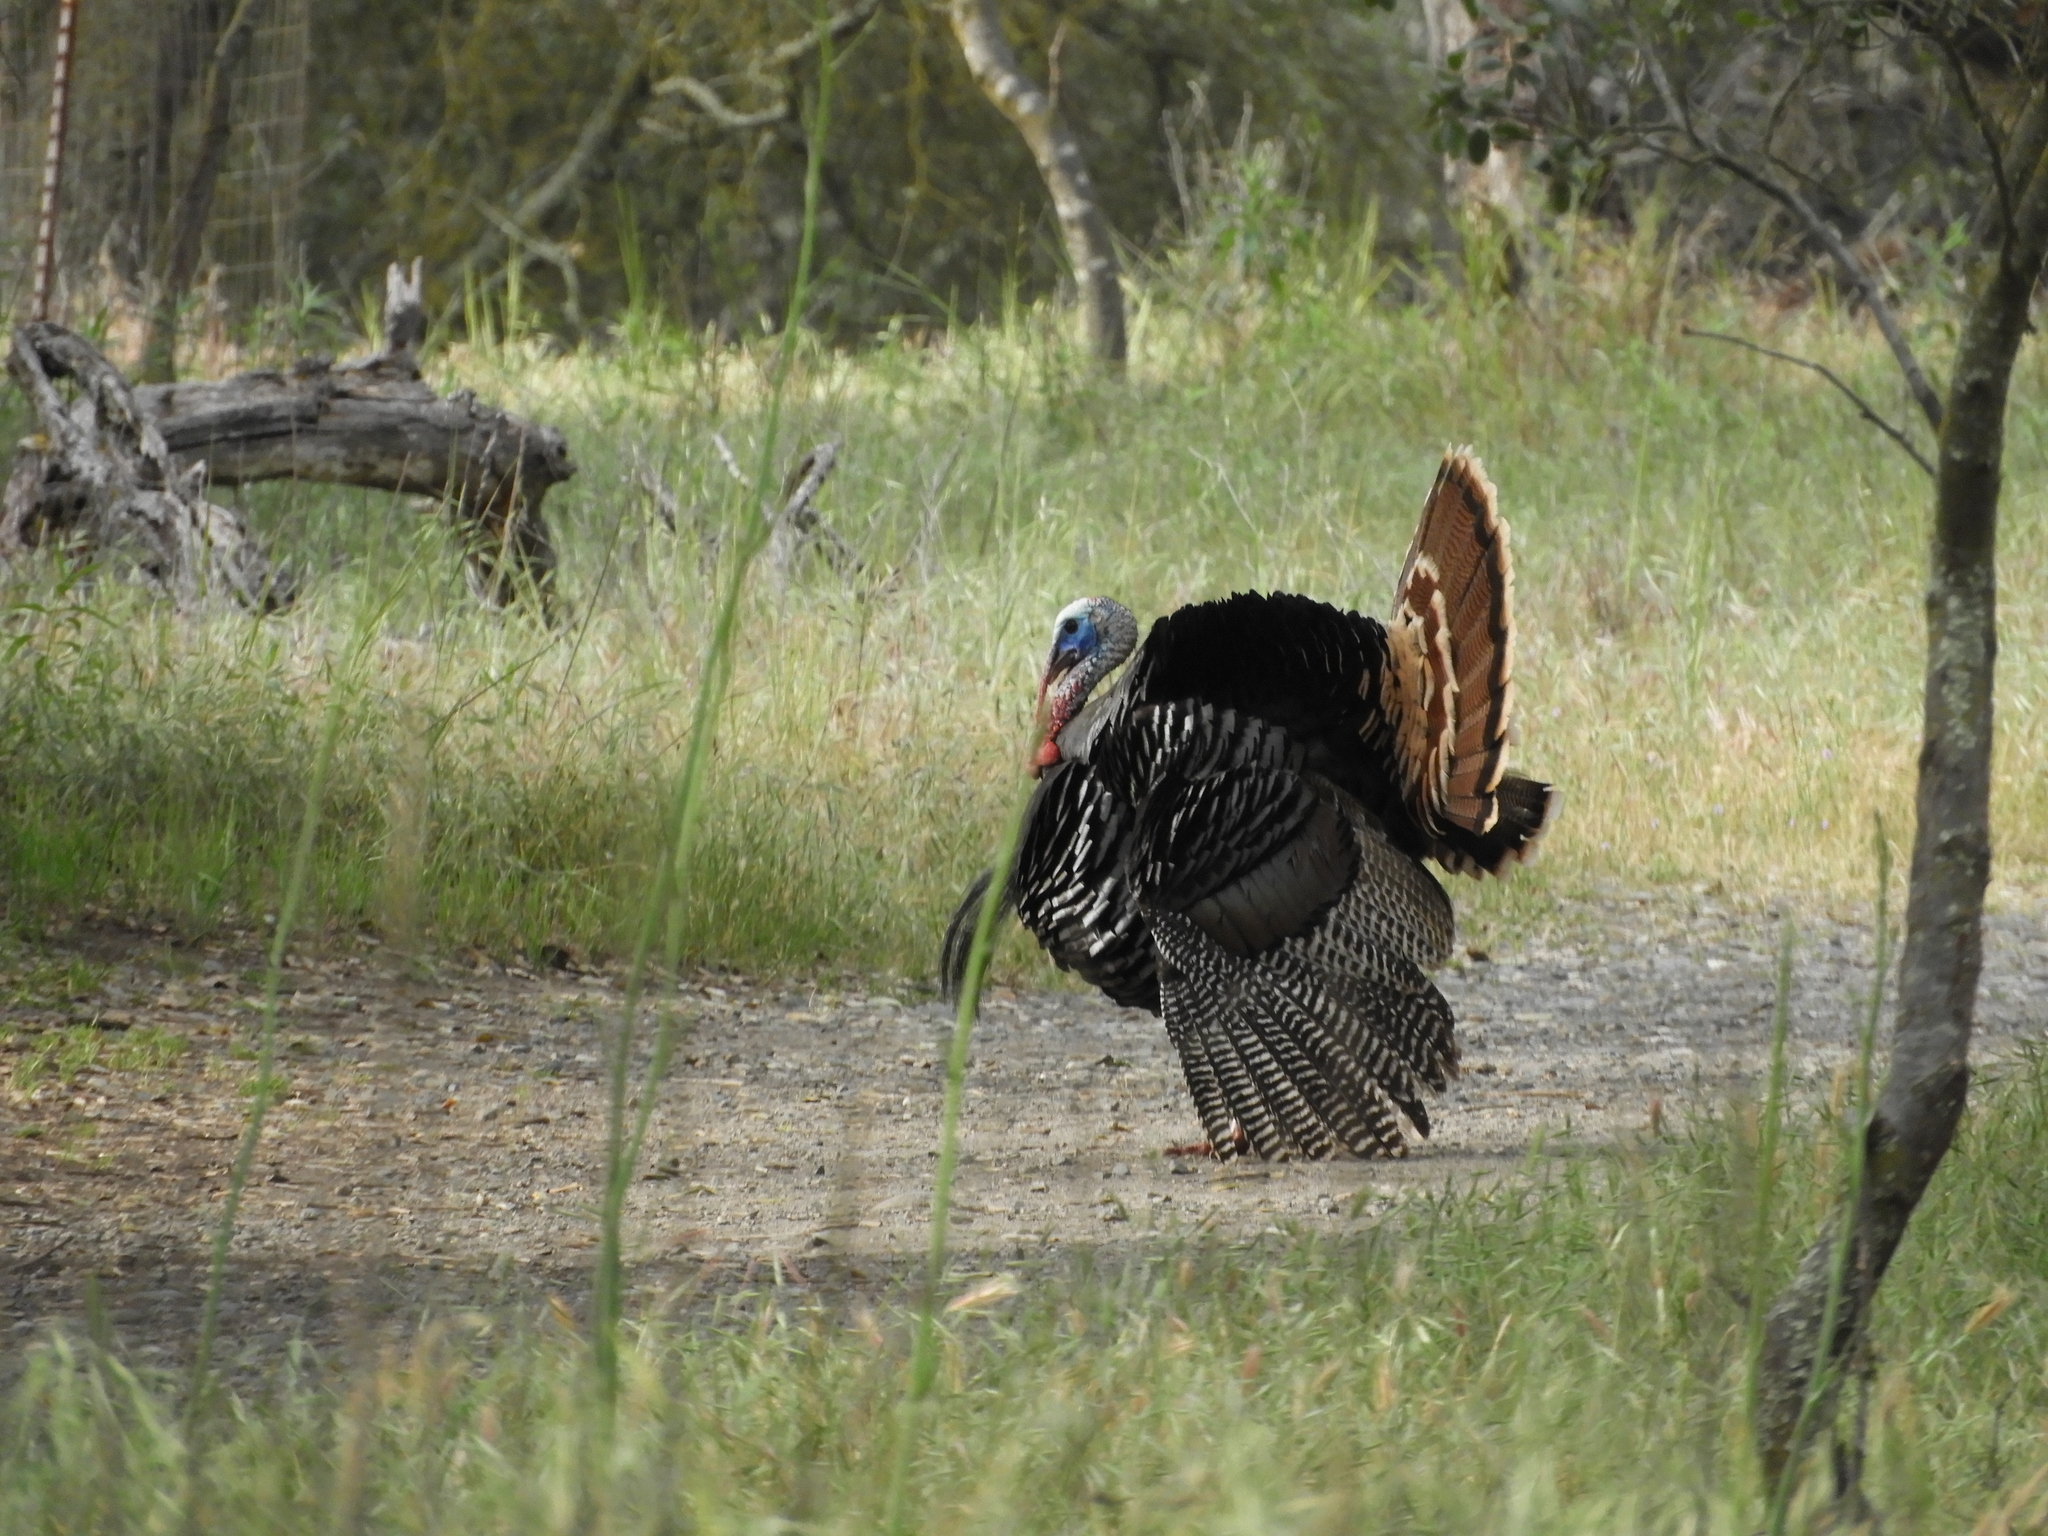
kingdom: Animalia
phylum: Chordata
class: Aves
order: Galliformes
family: Phasianidae
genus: Meleagris
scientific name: Meleagris gallopavo
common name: Wild turkey
